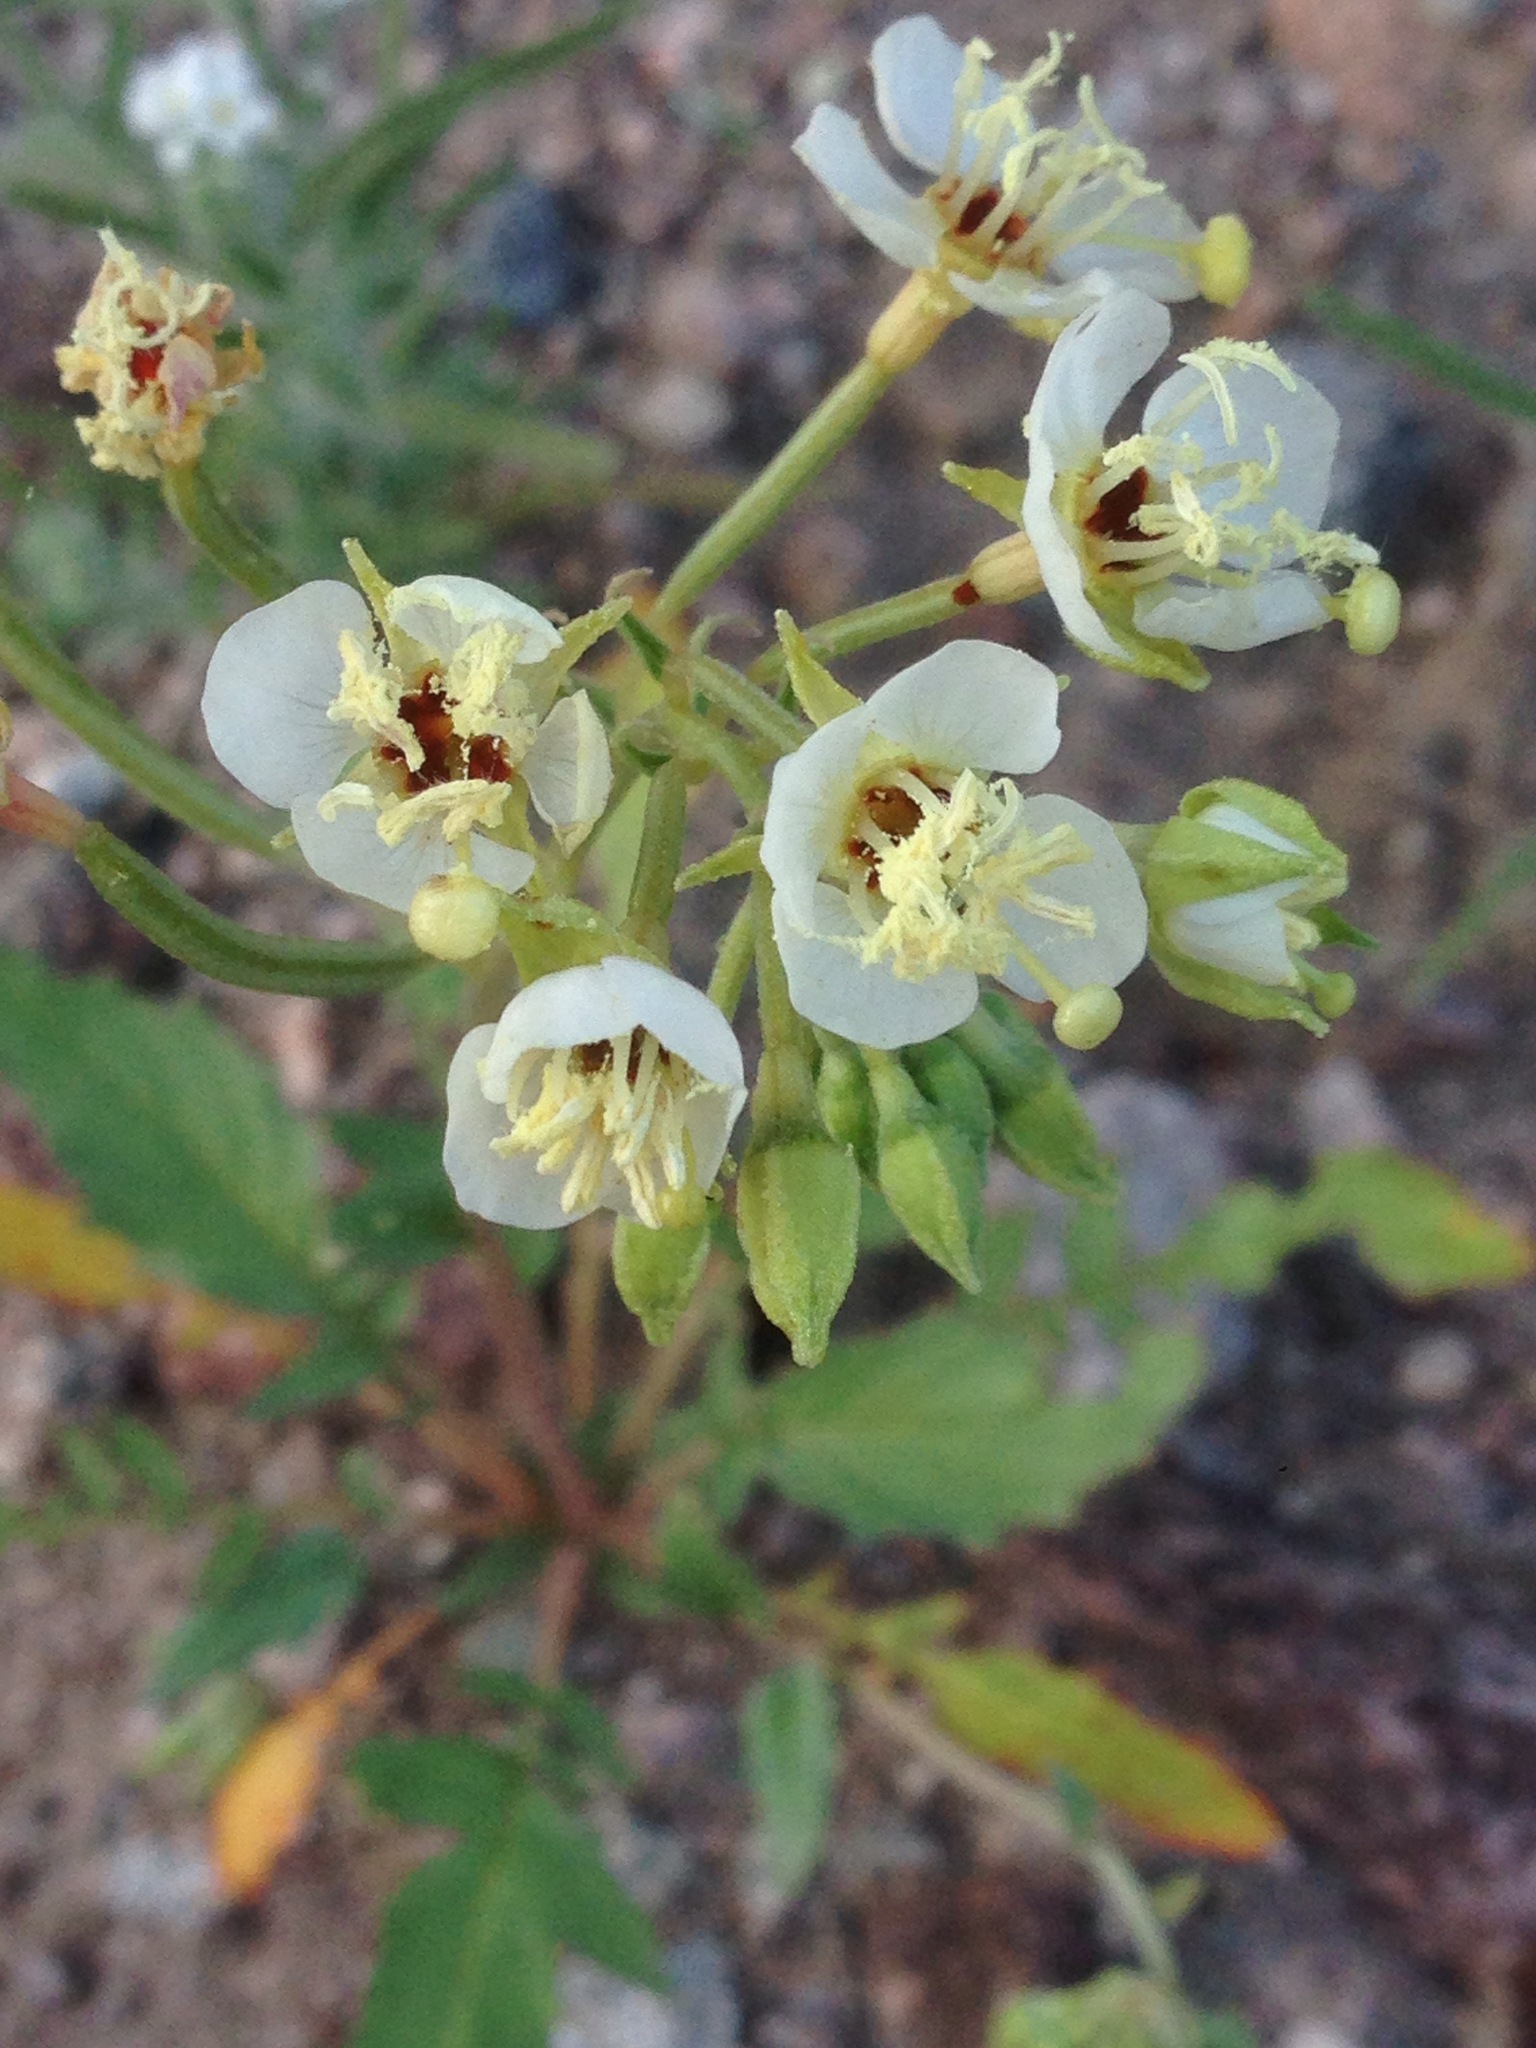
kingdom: Plantae
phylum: Tracheophyta
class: Magnoliopsida
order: Myrtales
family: Onagraceae
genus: Chylismia
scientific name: Chylismia claviformis
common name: Browneyes
